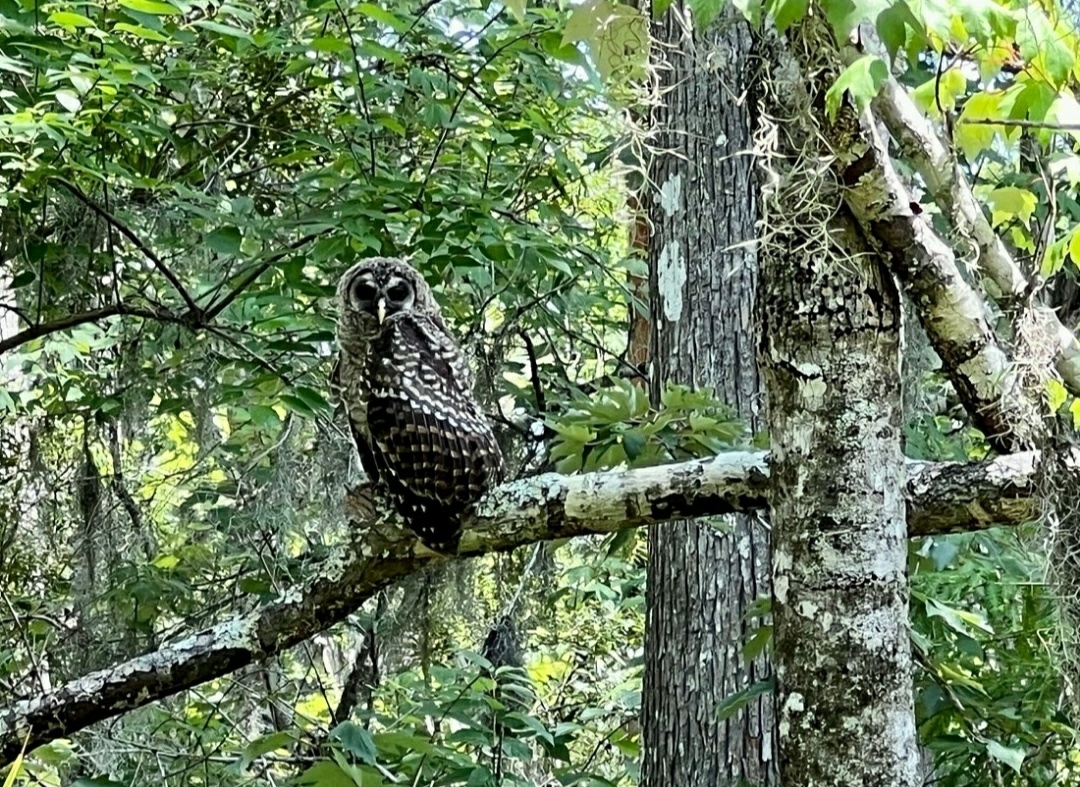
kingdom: Animalia
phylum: Chordata
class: Aves
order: Strigiformes
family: Strigidae
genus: Strix
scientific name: Strix varia
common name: Barred owl
